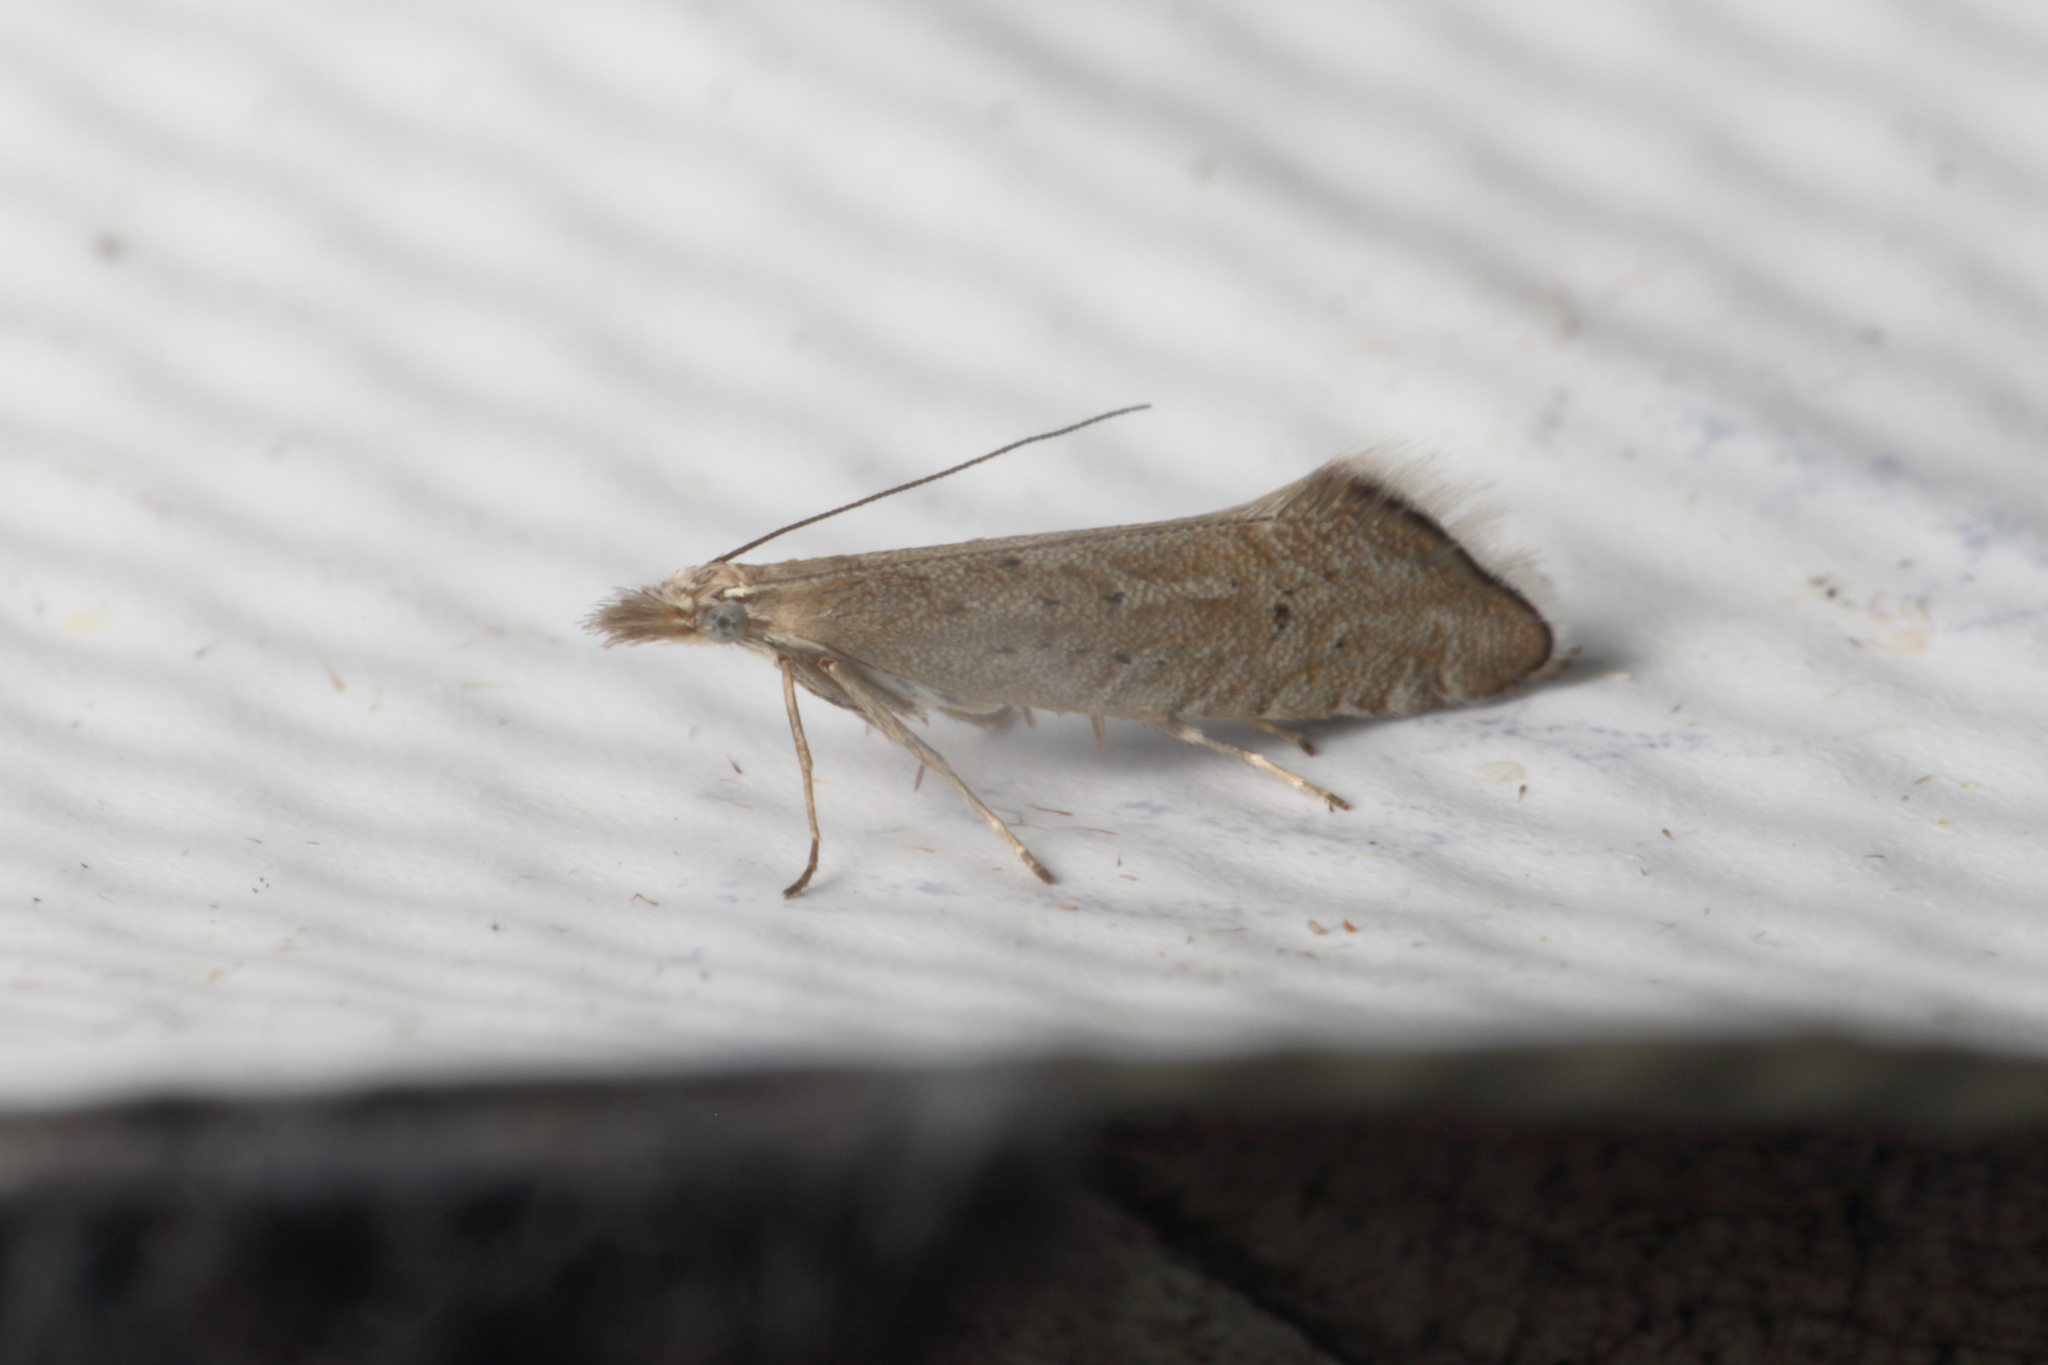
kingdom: Animalia
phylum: Arthropoda
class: Insecta
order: Lepidoptera
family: Glyphipterigidae
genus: Glyphipterix
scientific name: Glyphipterix achlyoessa
